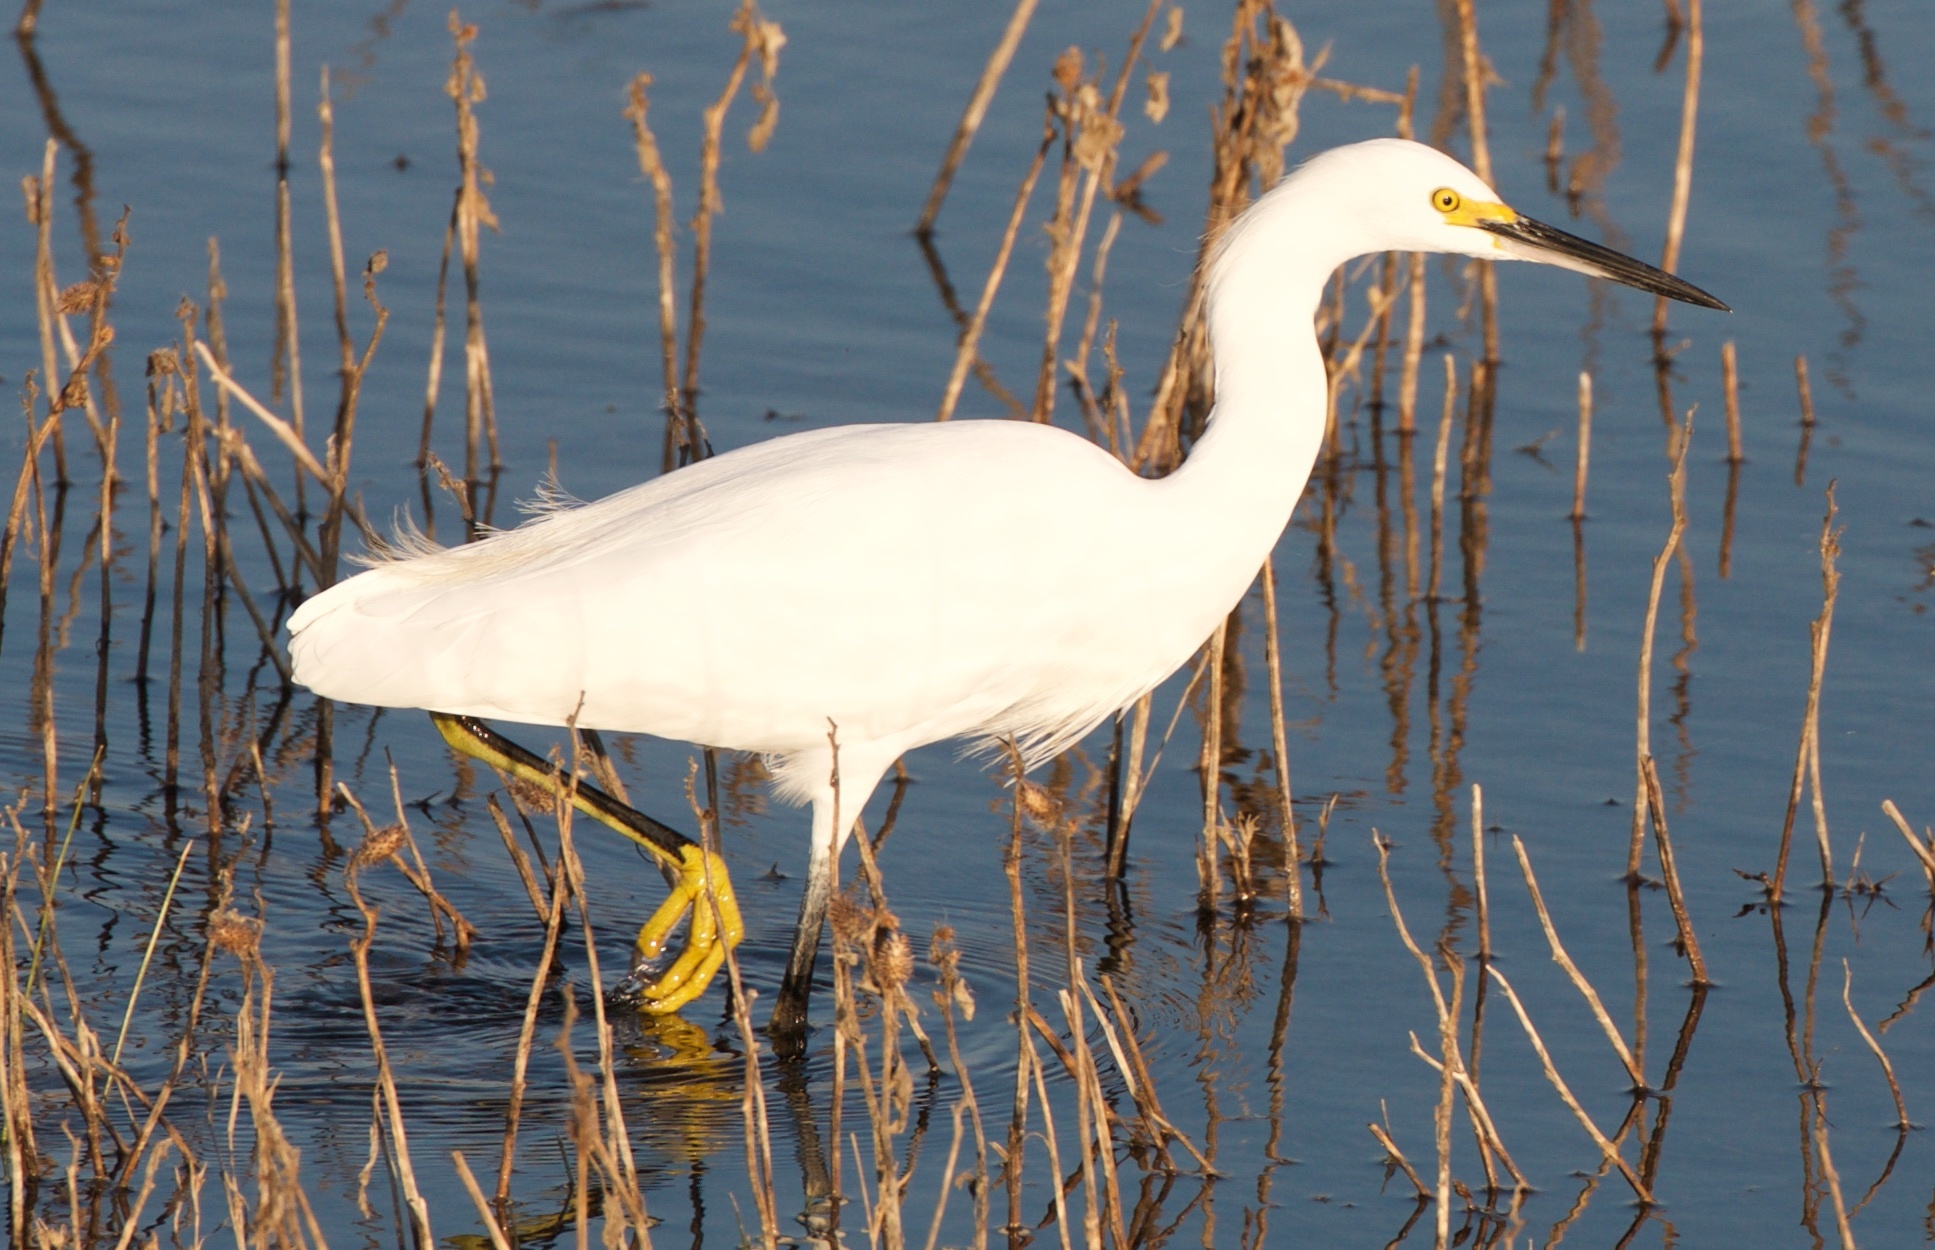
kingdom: Animalia
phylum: Chordata
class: Aves
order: Pelecaniformes
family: Ardeidae
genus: Egretta
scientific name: Egretta thula
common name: Snowy egret
